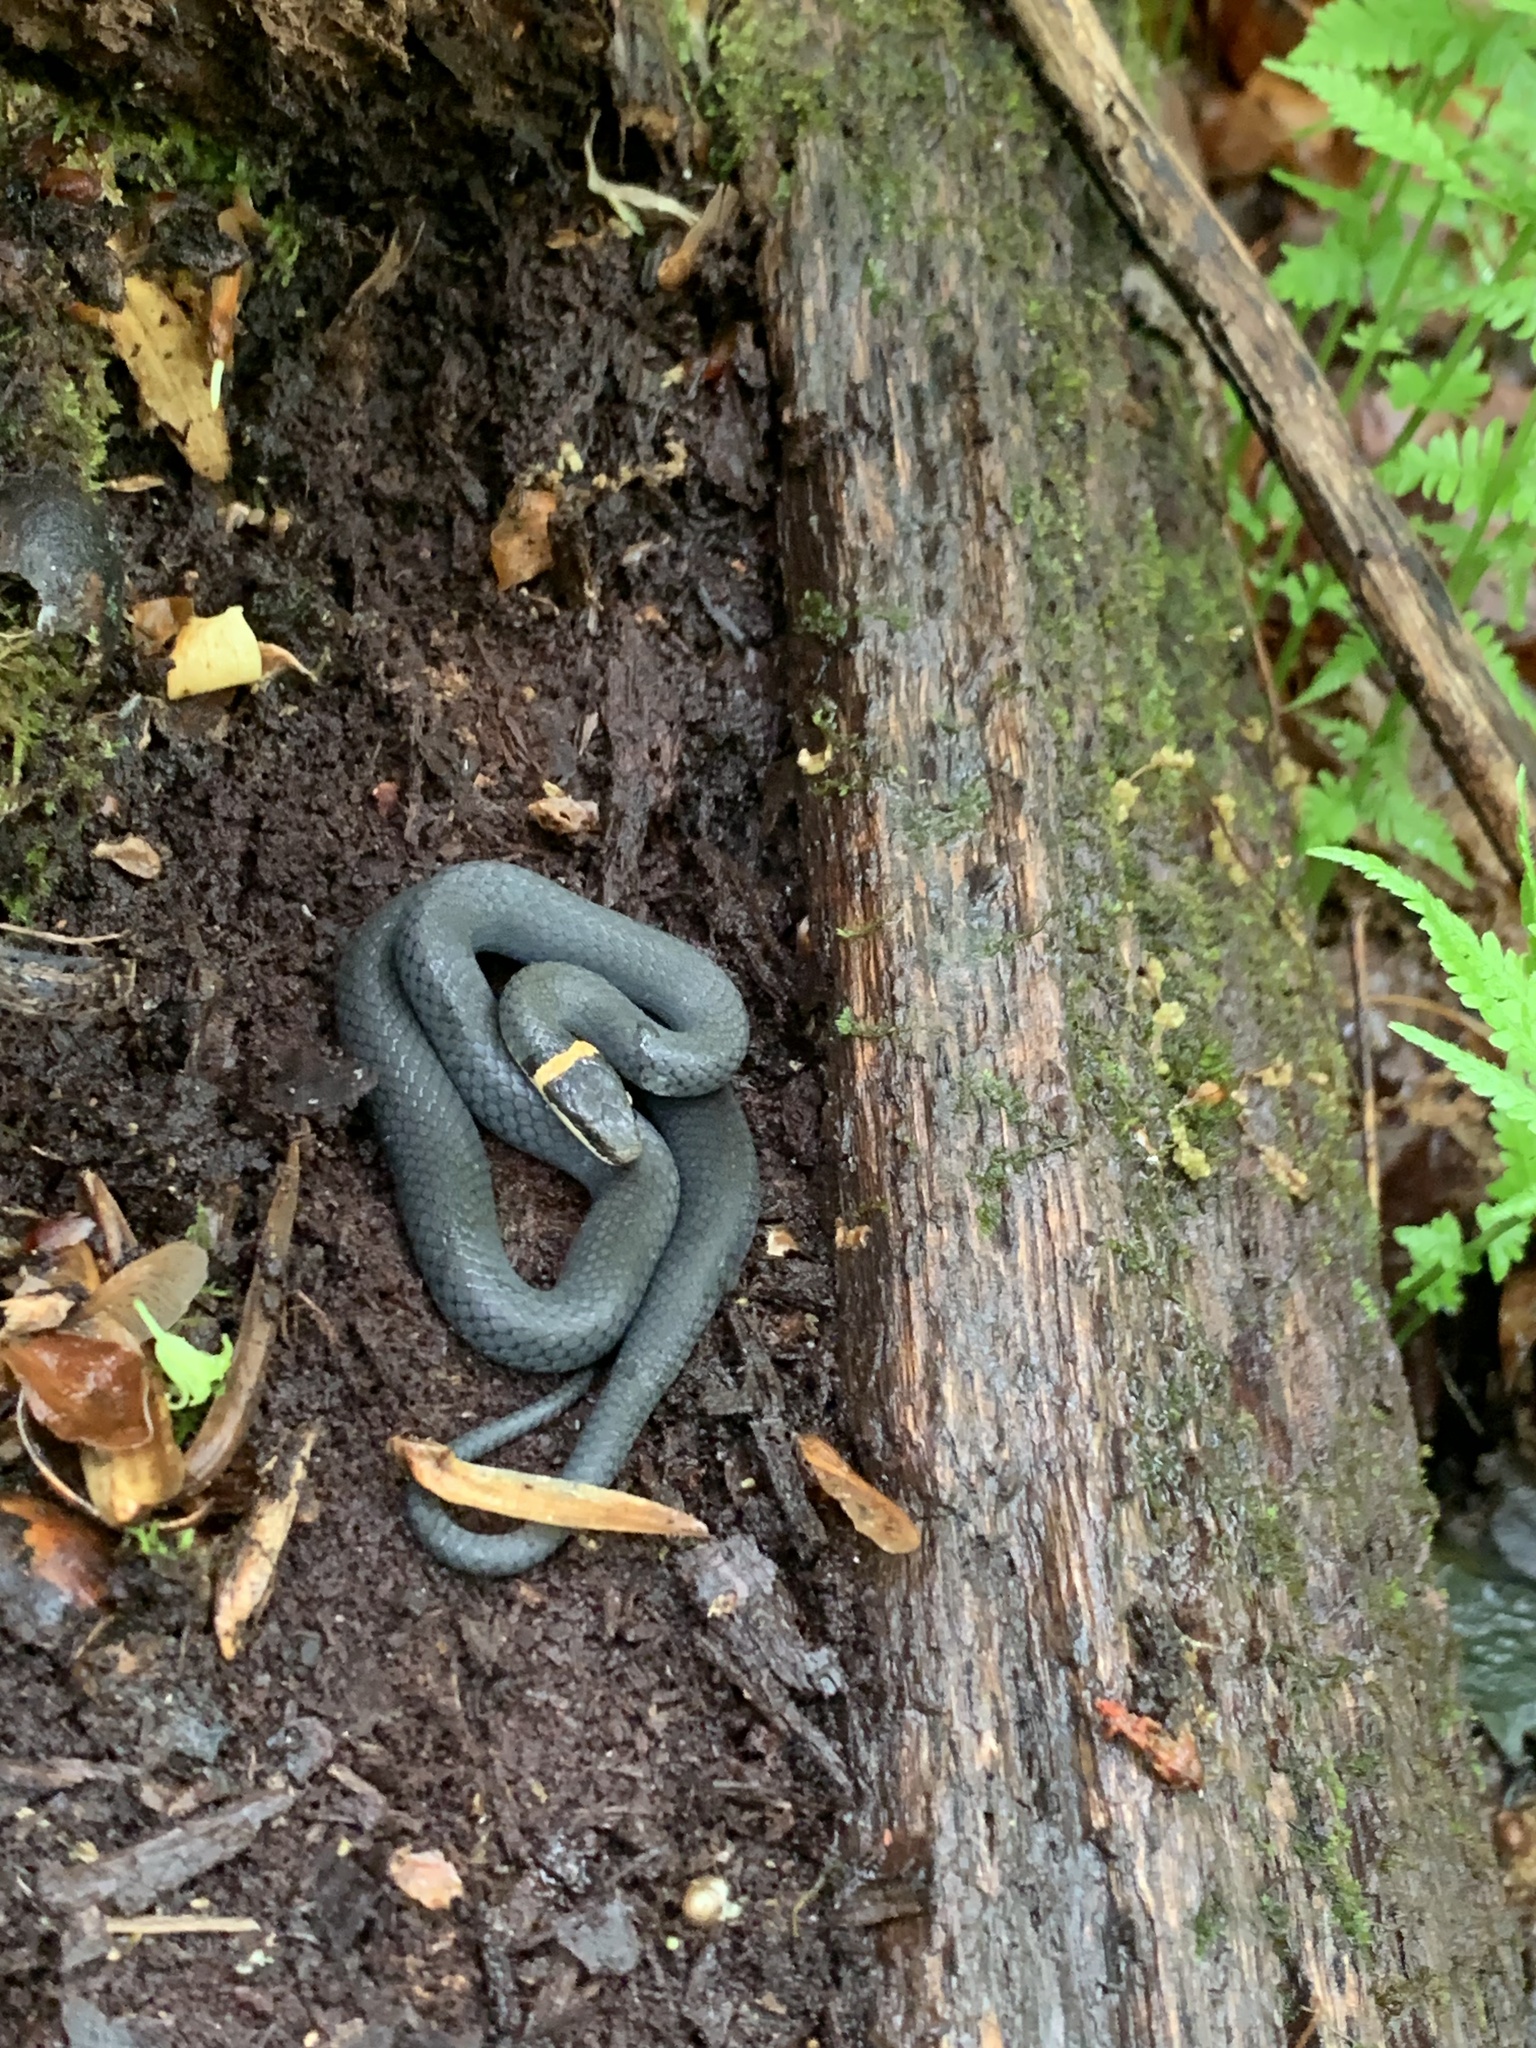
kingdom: Animalia
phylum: Chordata
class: Squamata
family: Colubridae
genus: Diadophis
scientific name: Diadophis punctatus
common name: Ringneck snake
